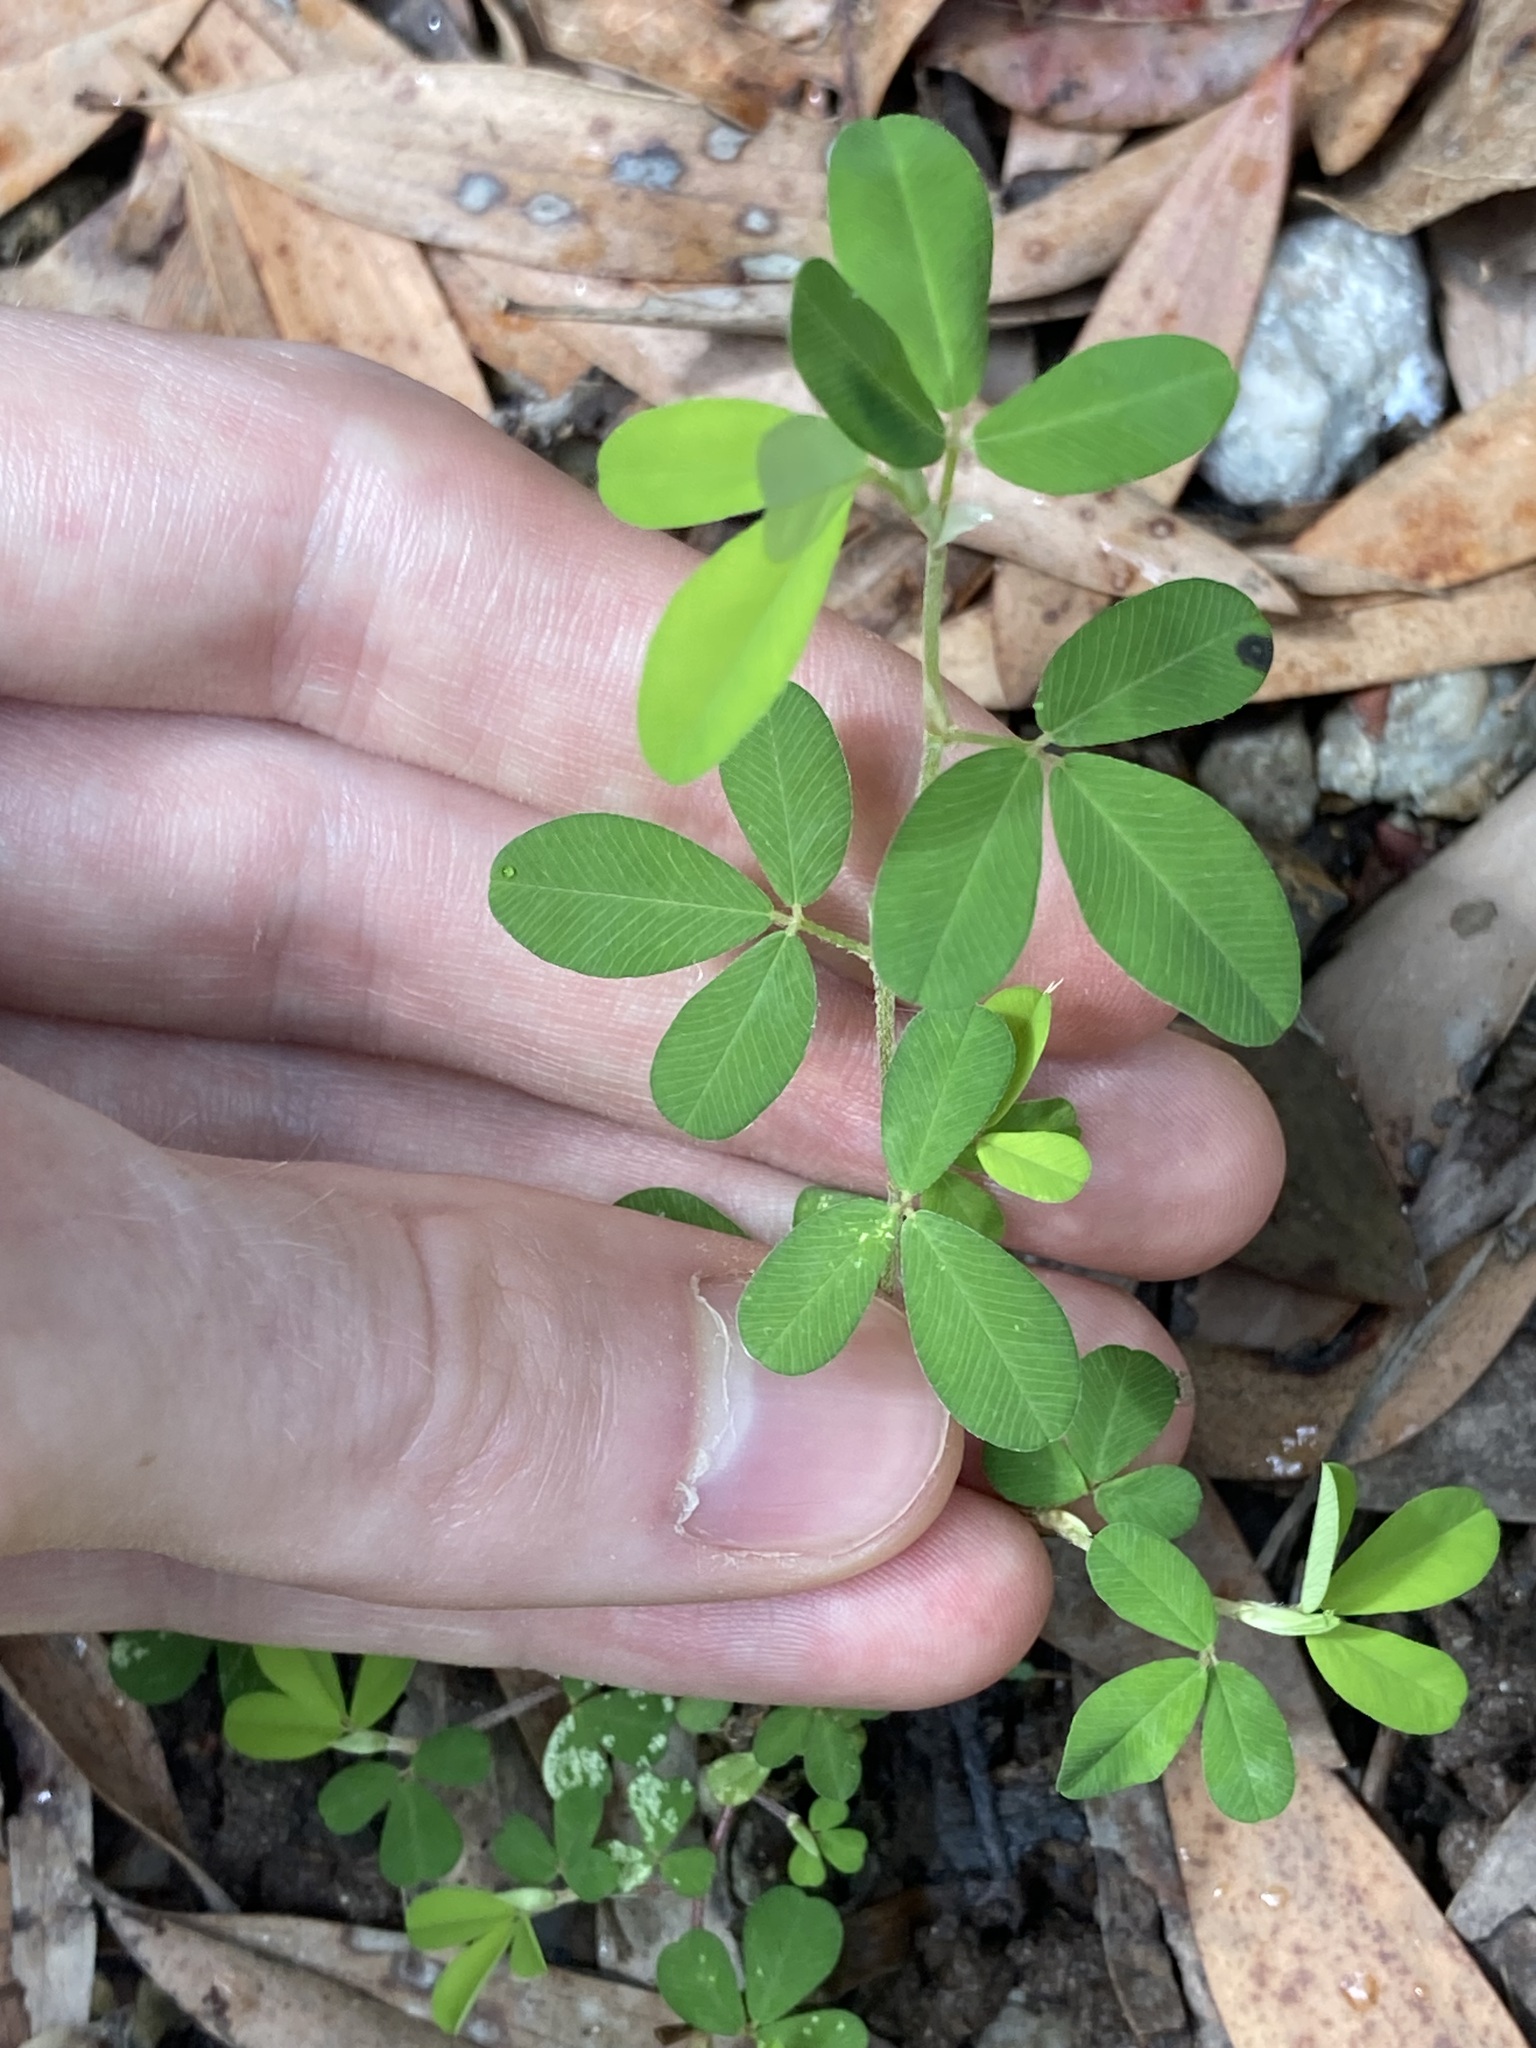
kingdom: Plantae
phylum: Tracheophyta
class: Magnoliopsida
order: Fabales
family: Fabaceae
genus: Kummerowia
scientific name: Kummerowia striata
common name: Japanese clover
